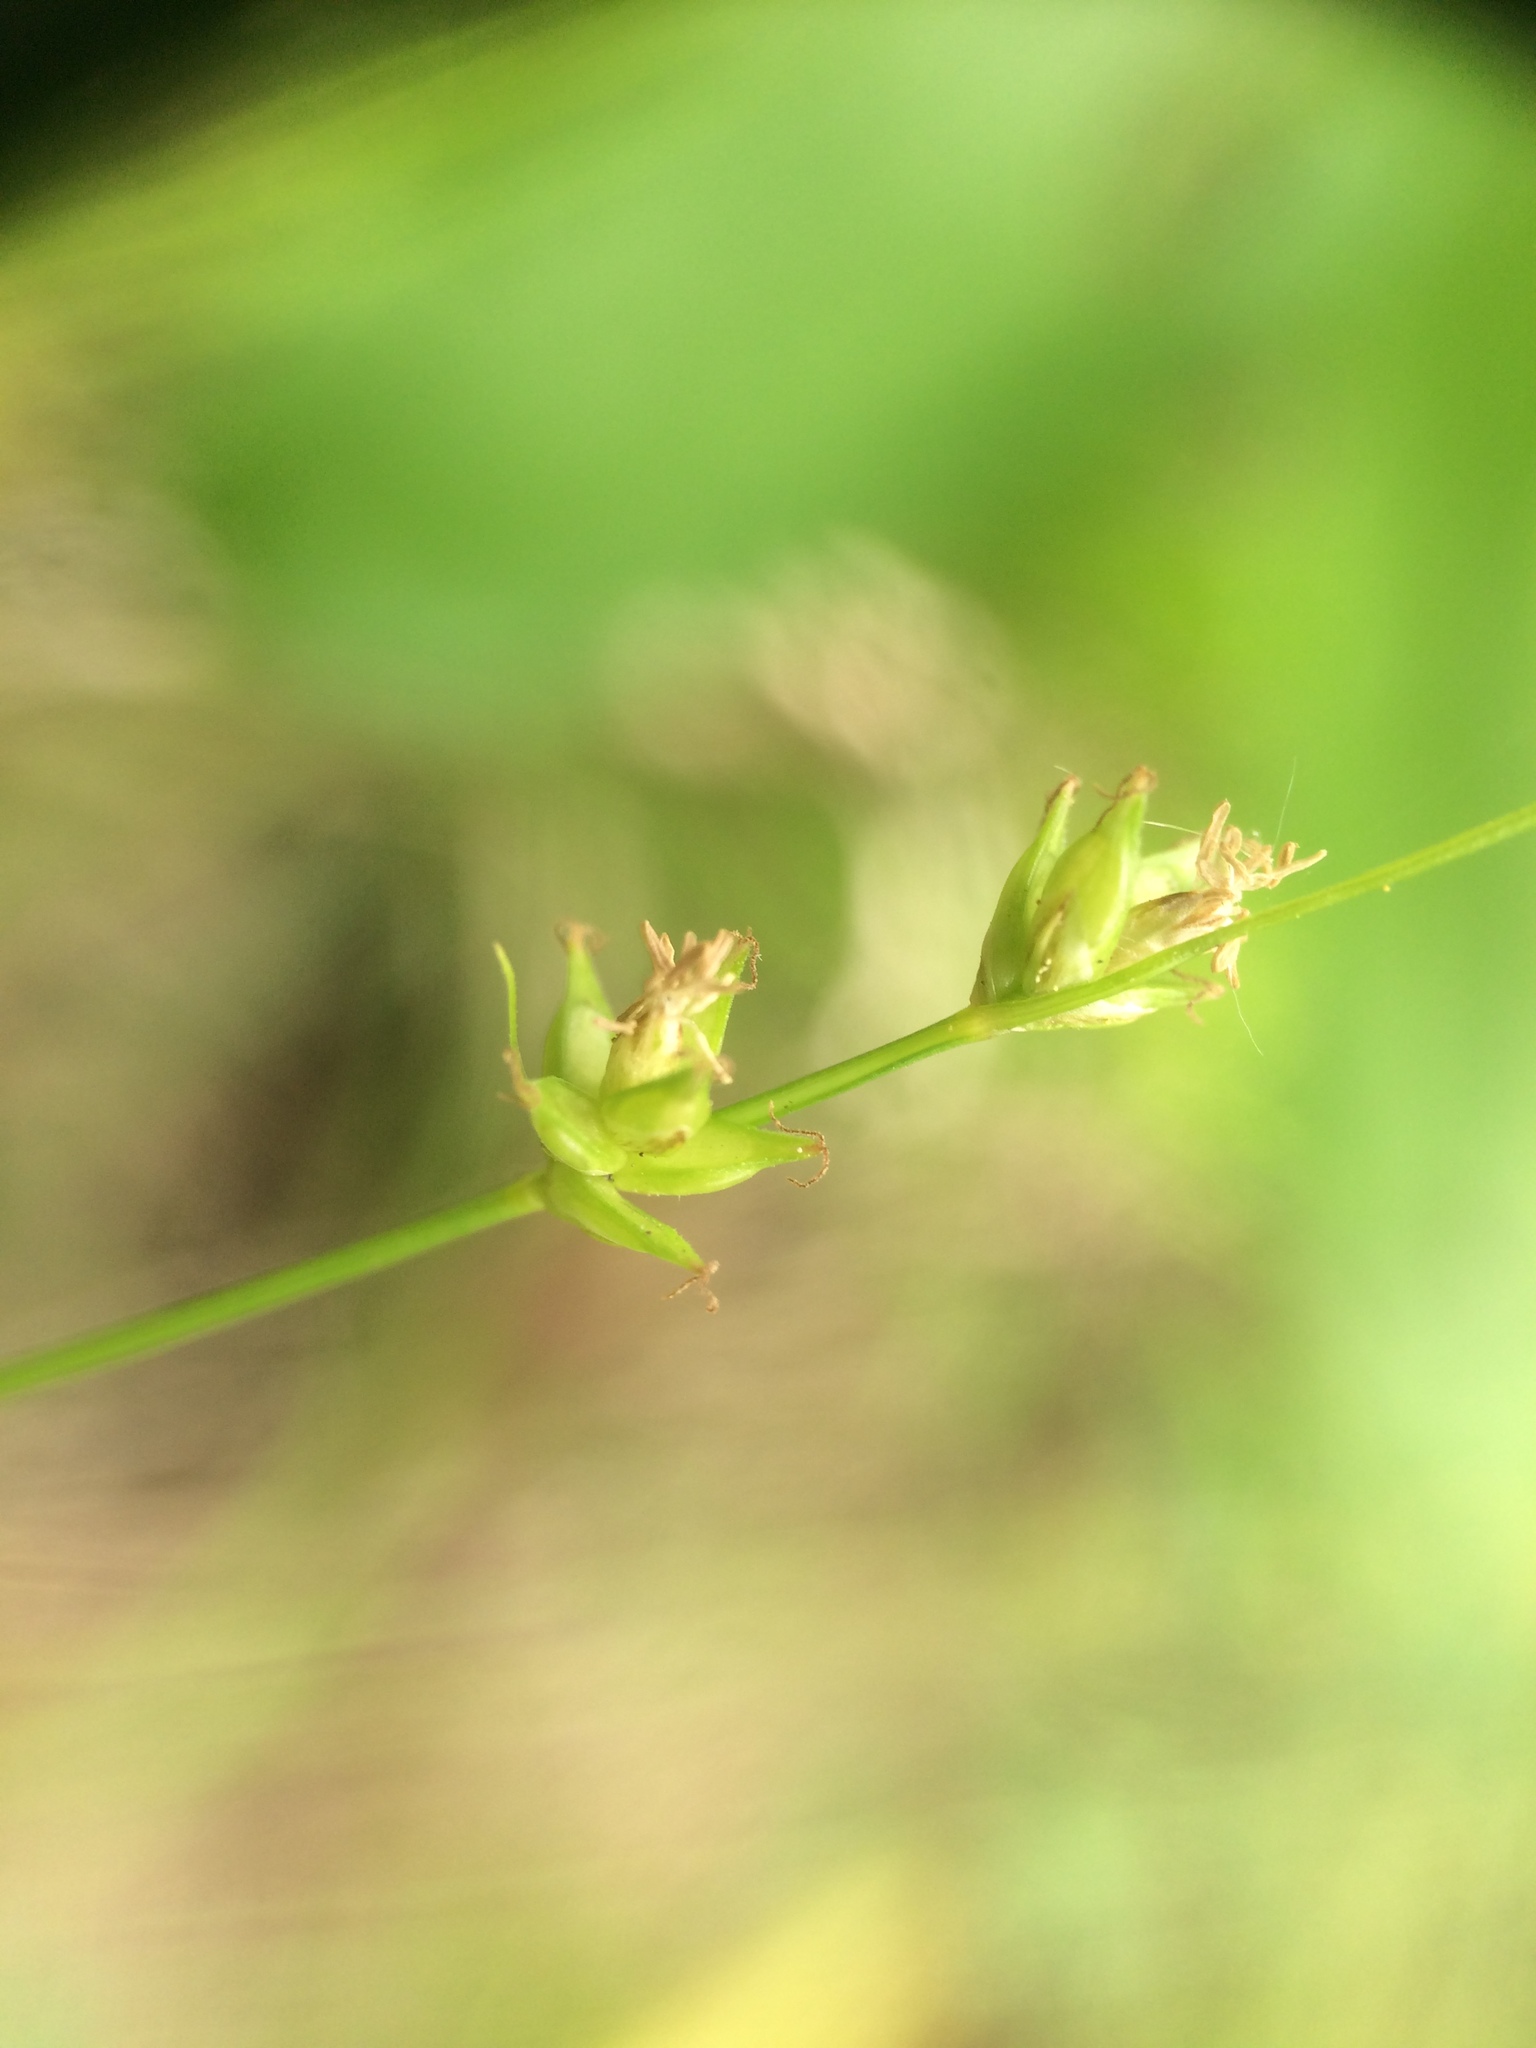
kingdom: Plantae
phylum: Tracheophyta
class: Liliopsida
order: Poales
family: Cyperaceae
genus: Carex
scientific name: Carex radiata
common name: Eastern star sedge
